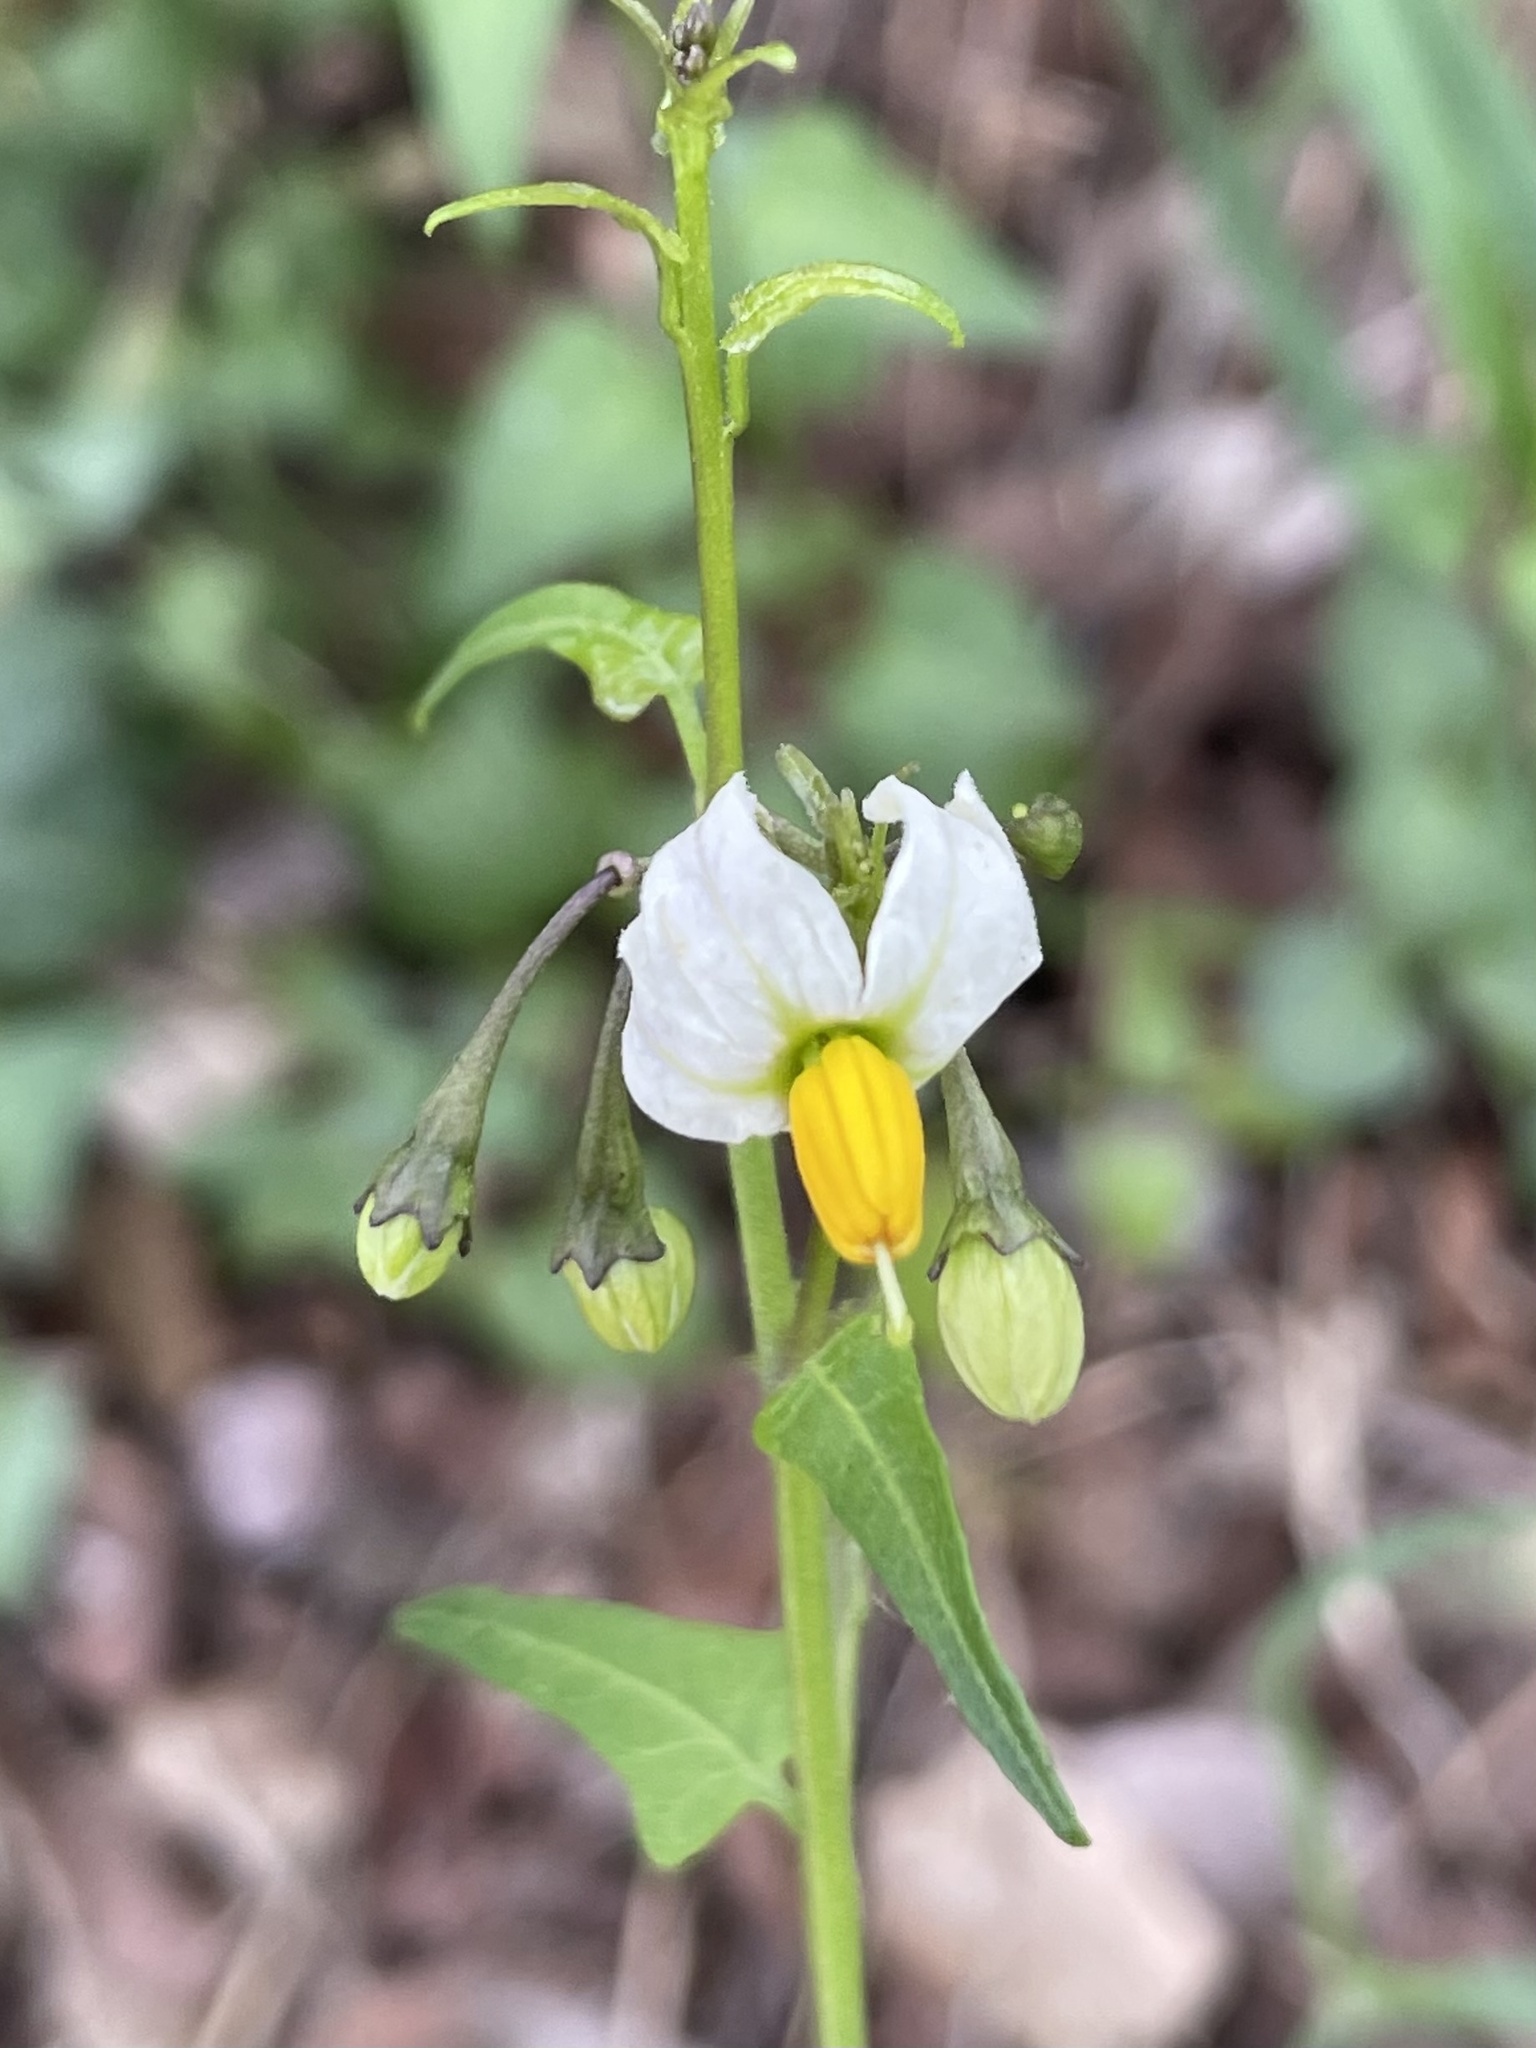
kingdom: Plantae
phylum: Tracheophyta
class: Magnoliopsida
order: Solanales
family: Solanaceae
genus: Solanum
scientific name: Solanum triquetrum
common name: Texas nightshade
